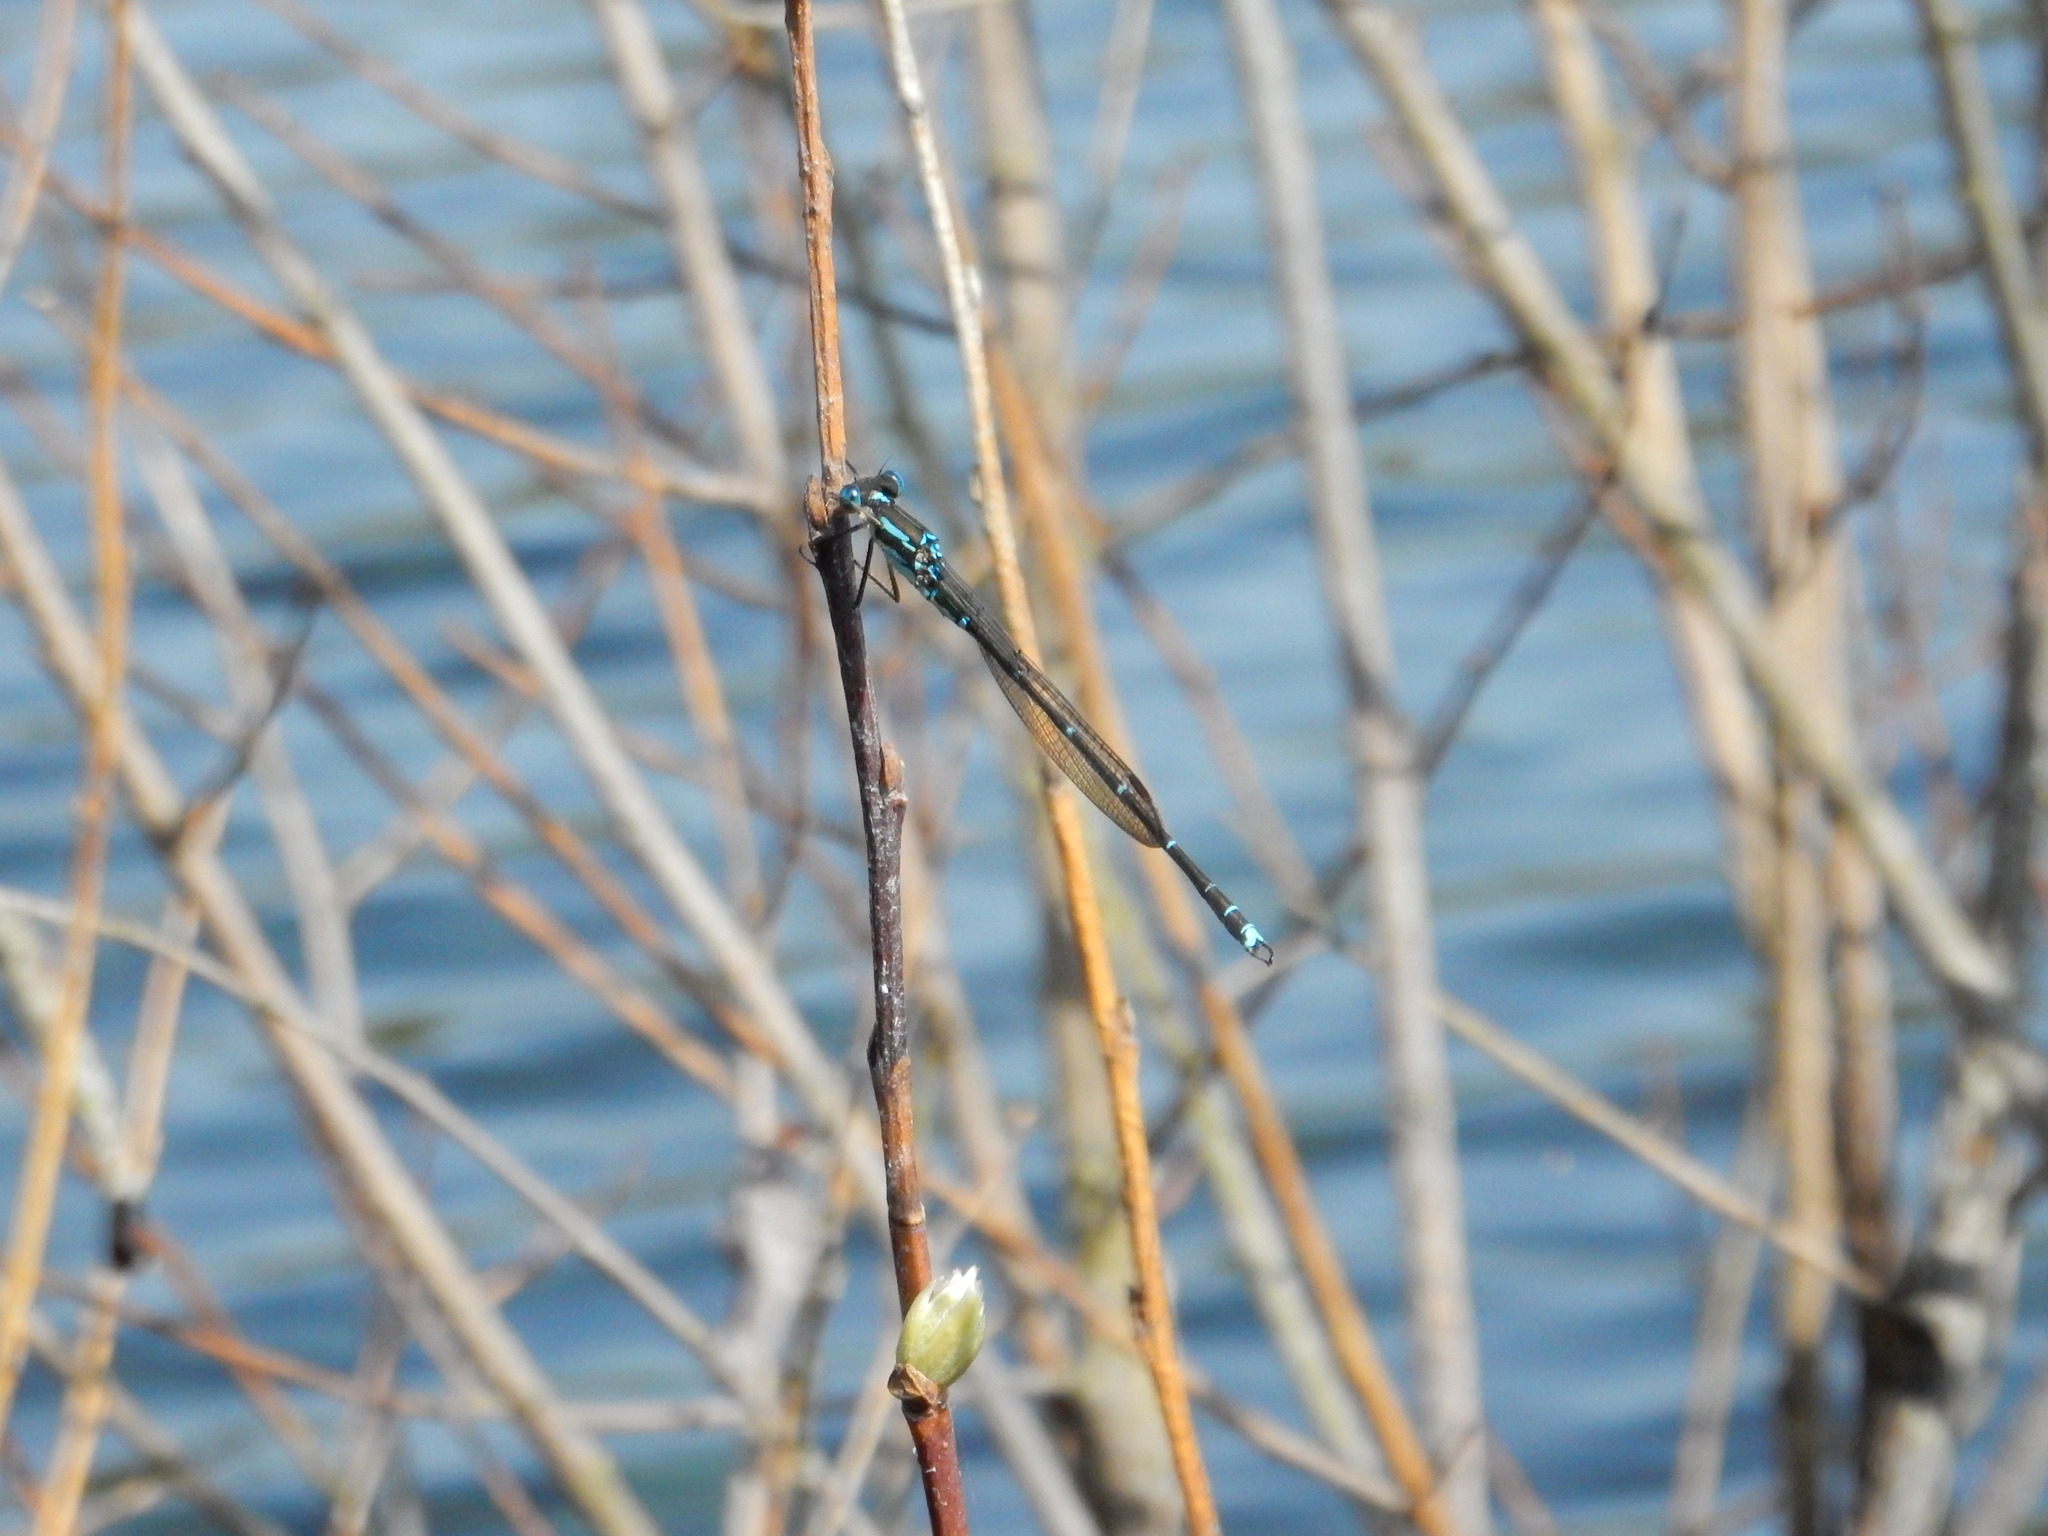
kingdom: Animalia
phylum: Arthropoda
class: Insecta
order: Odonata
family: Lestidae
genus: Austrolestes
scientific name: Austrolestes colensonis
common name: Blue damselfly
